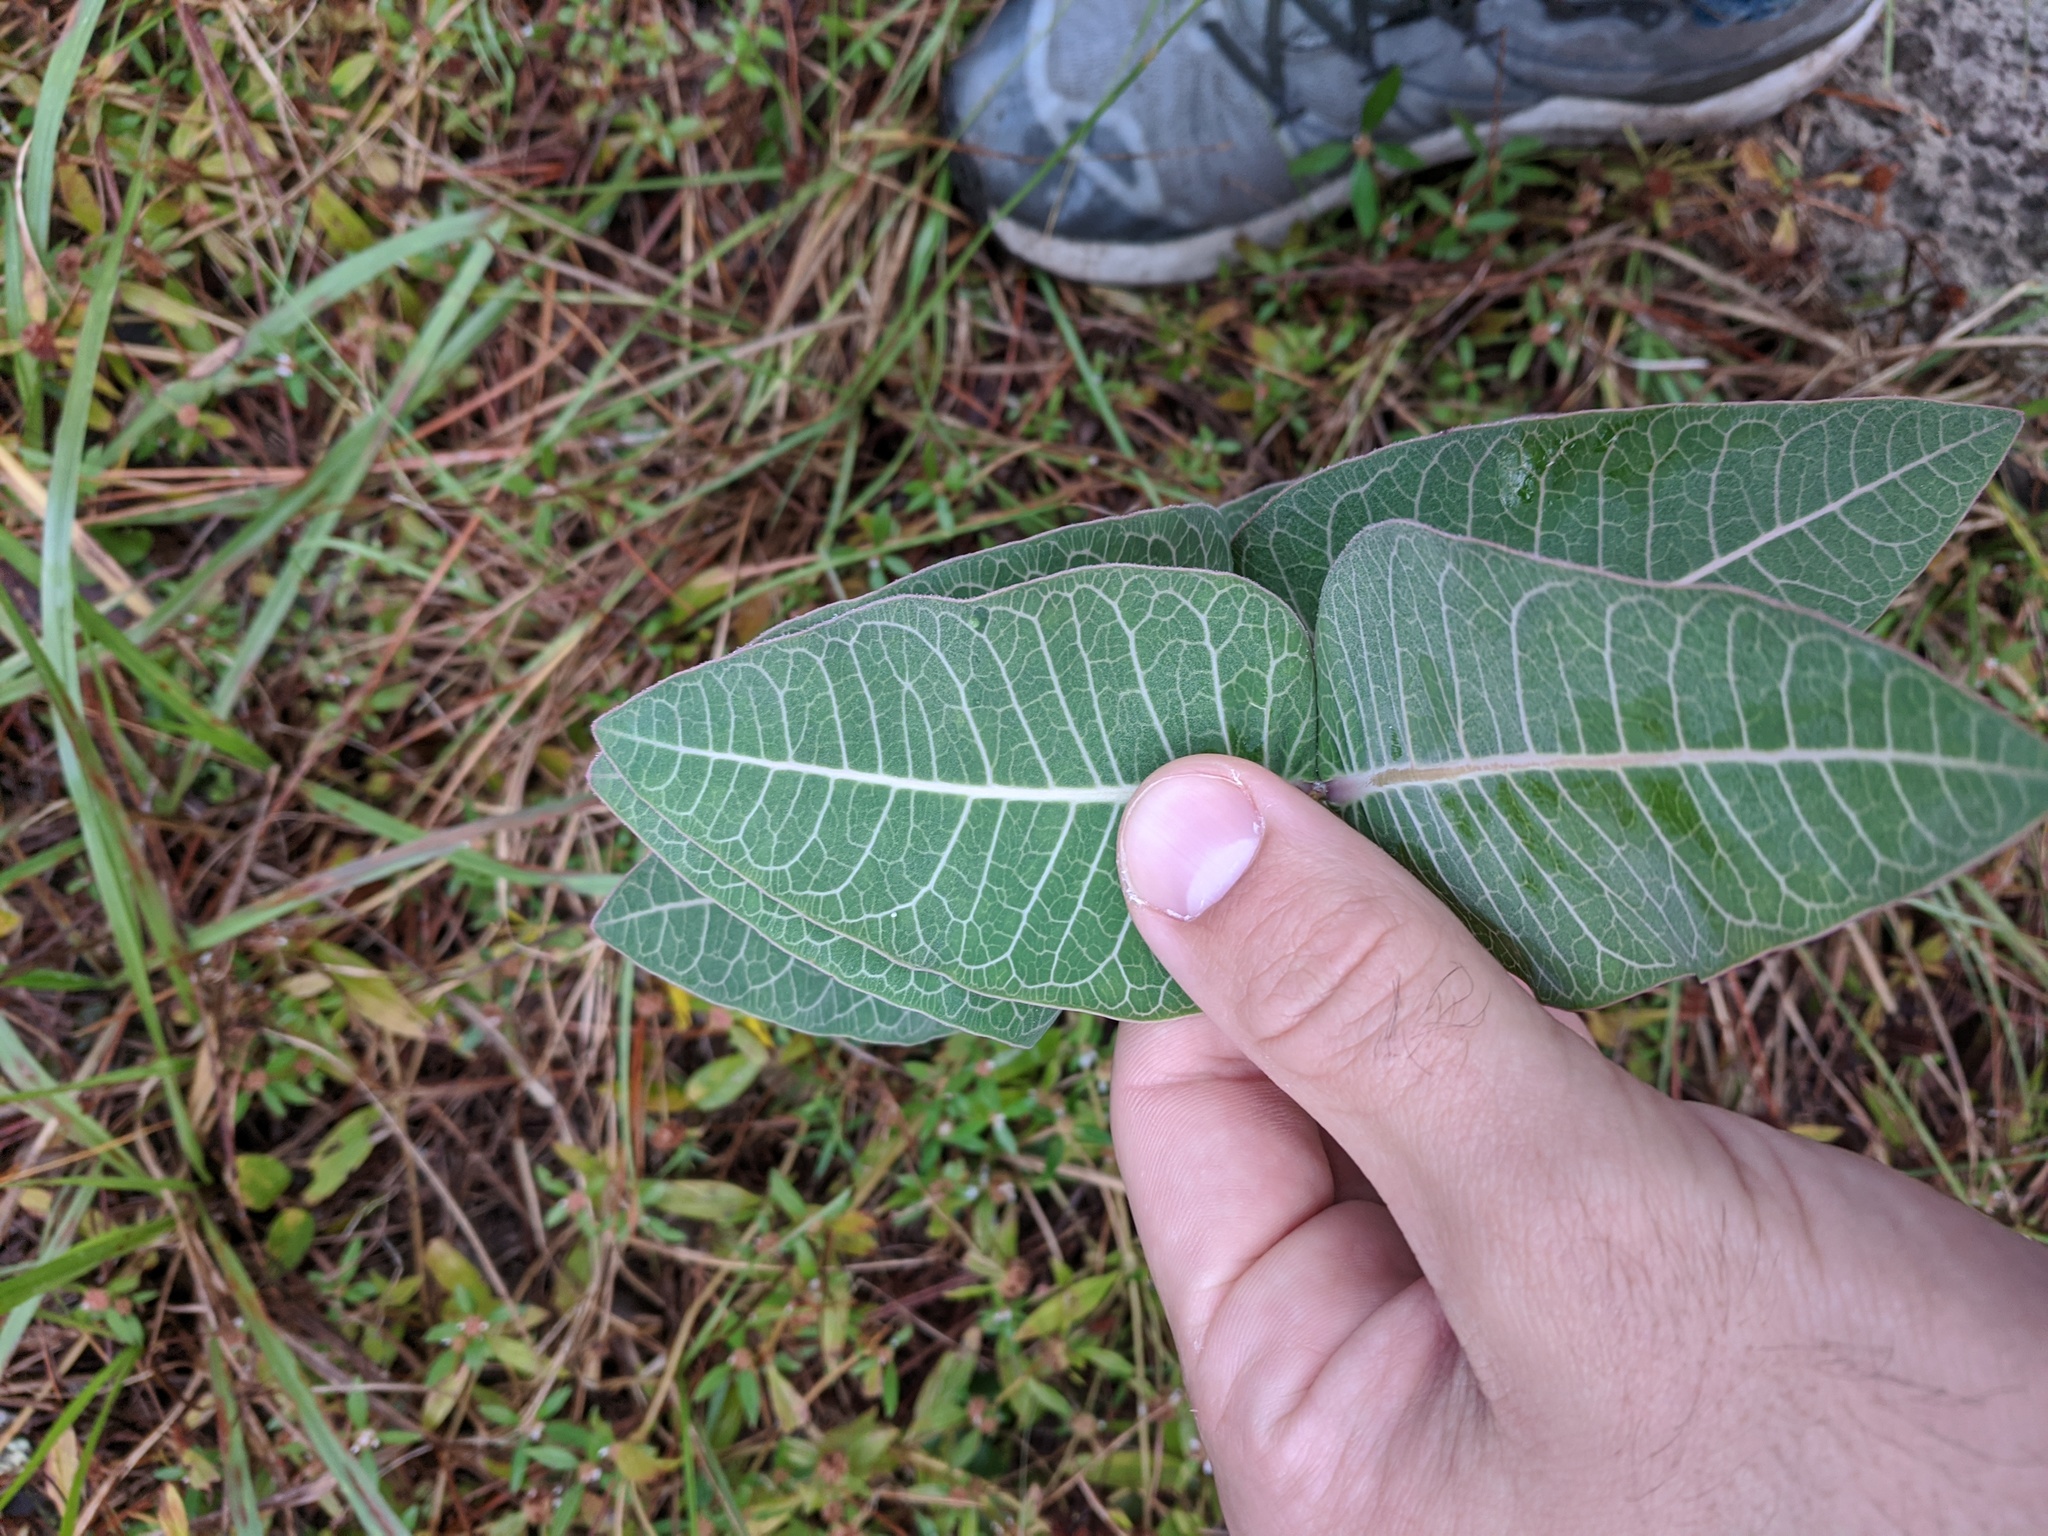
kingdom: Plantae
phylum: Tracheophyta
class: Magnoliopsida
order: Gentianales
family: Apocynaceae
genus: Asclepias
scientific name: Asclepias humistrata
